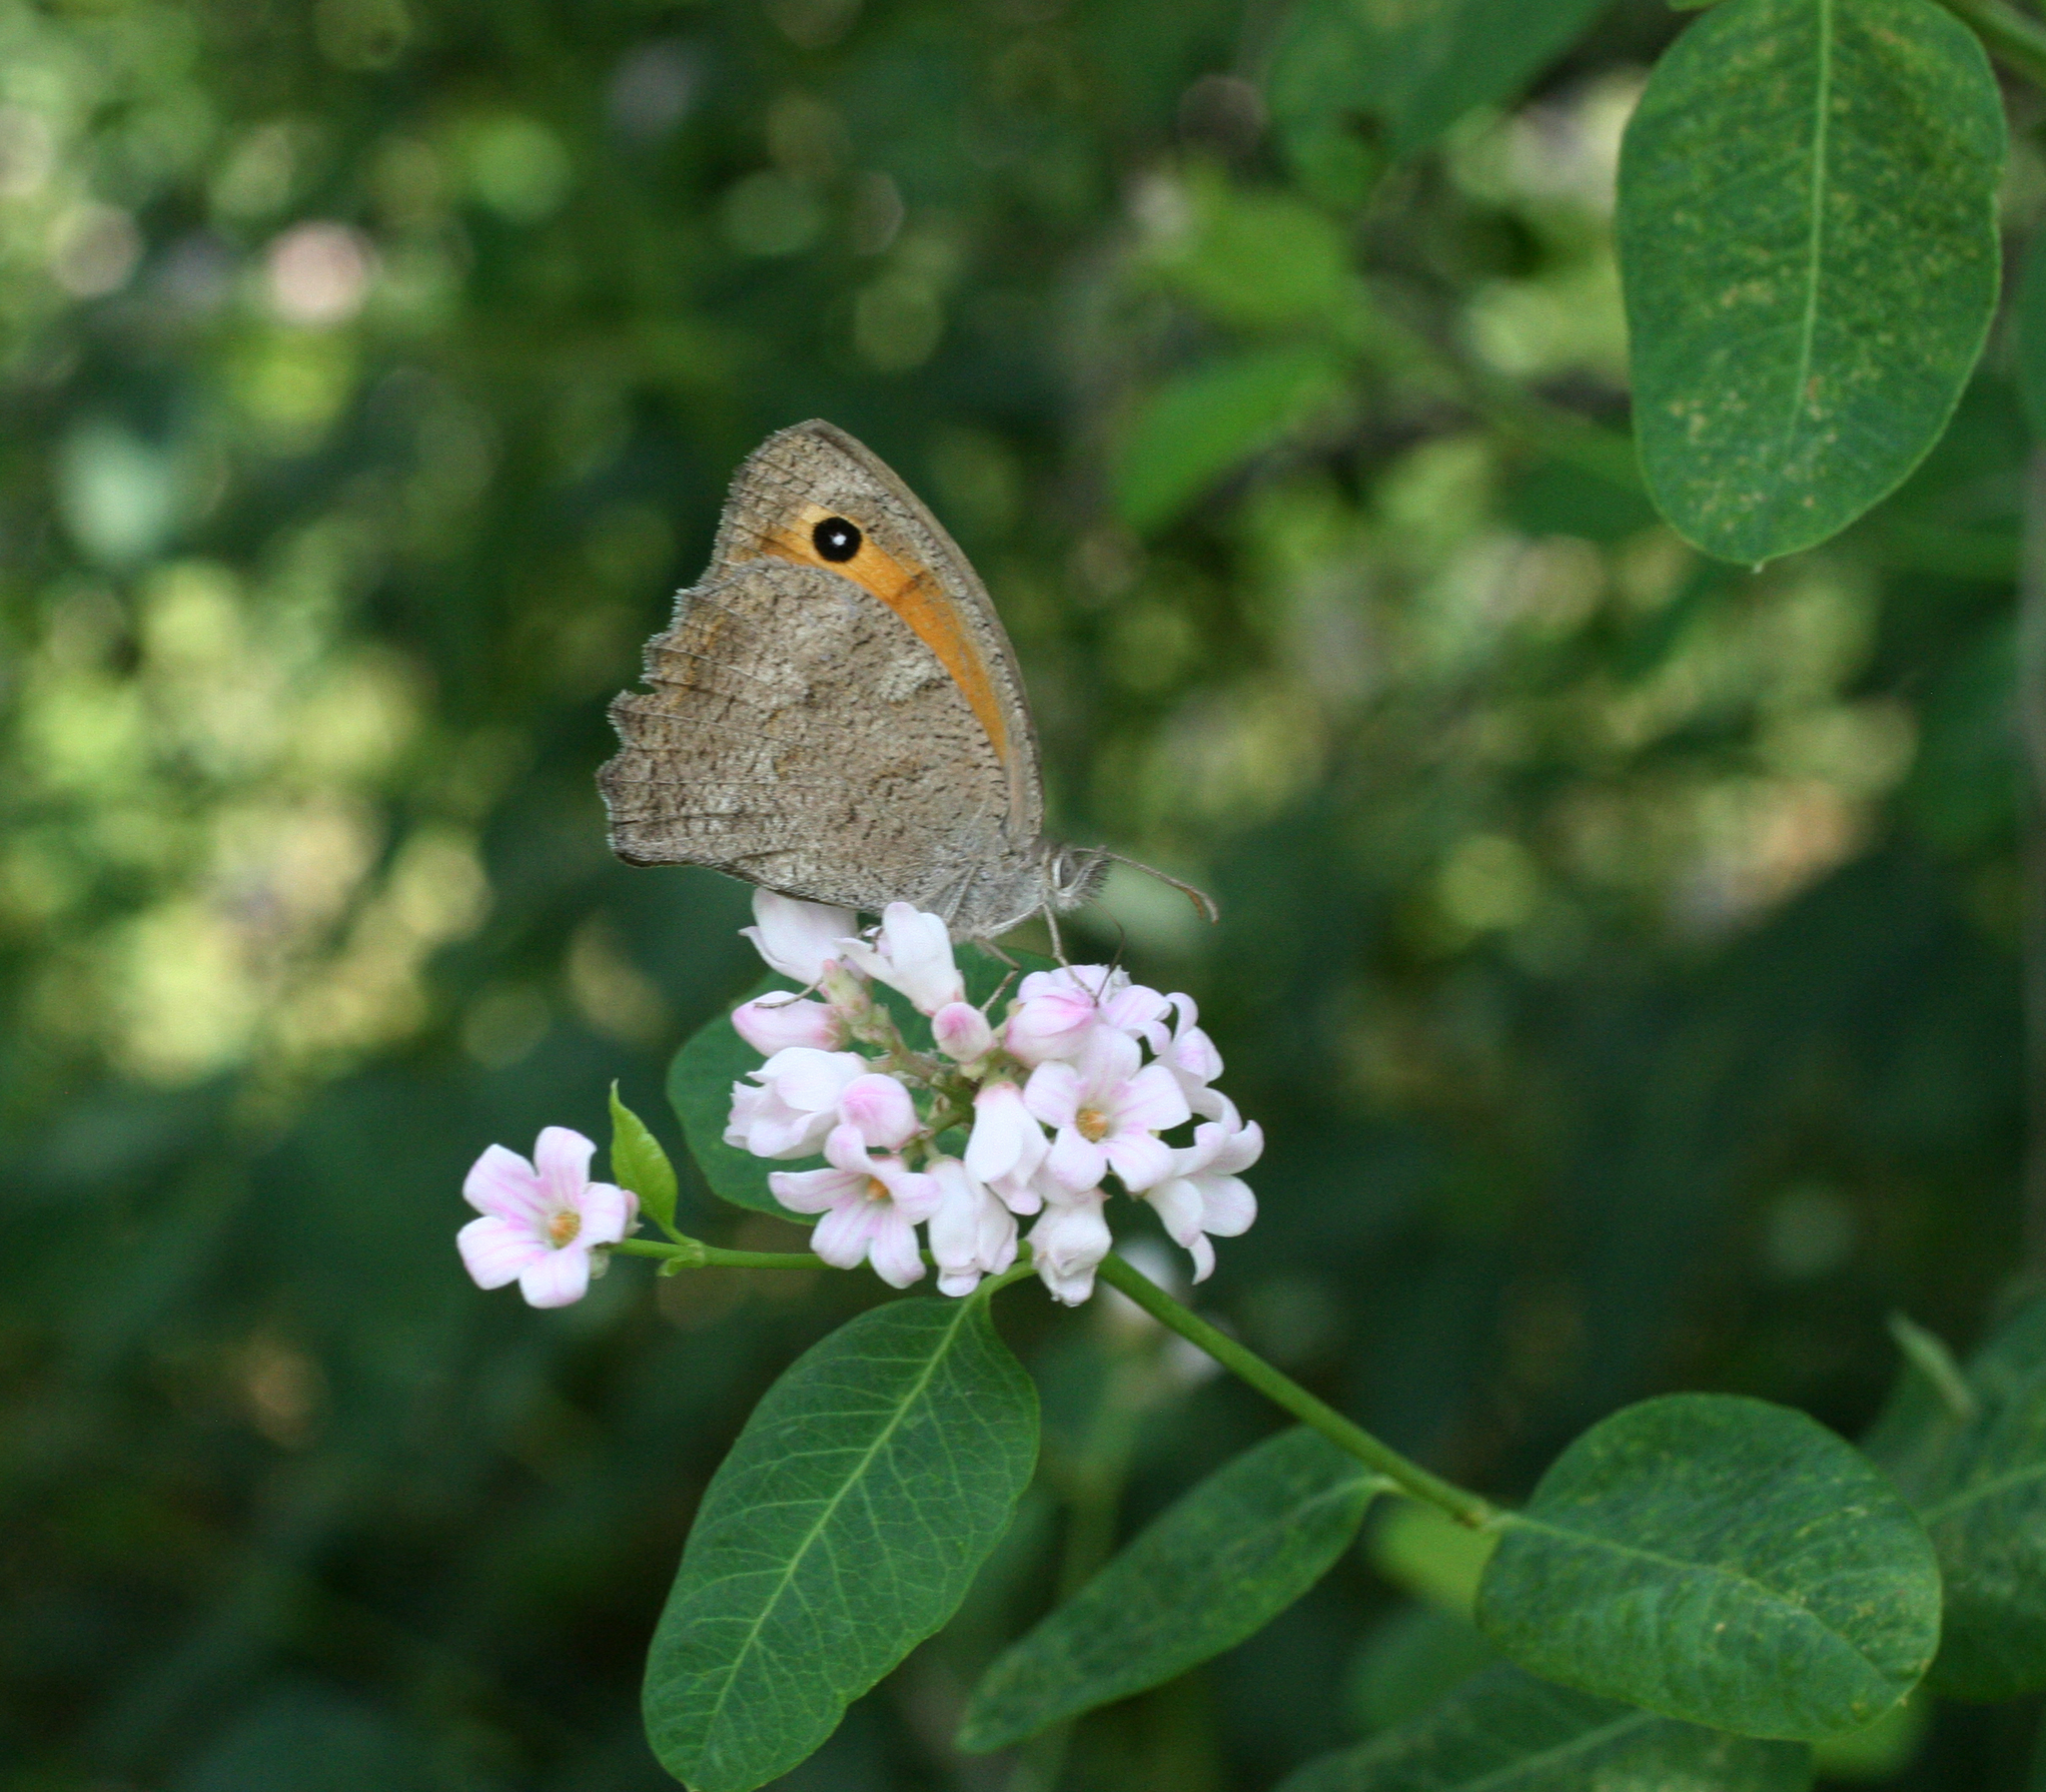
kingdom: Plantae
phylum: Tracheophyta
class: Magnoliopsida
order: Gentianales
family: Apocynaceae
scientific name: Apocynaceae
